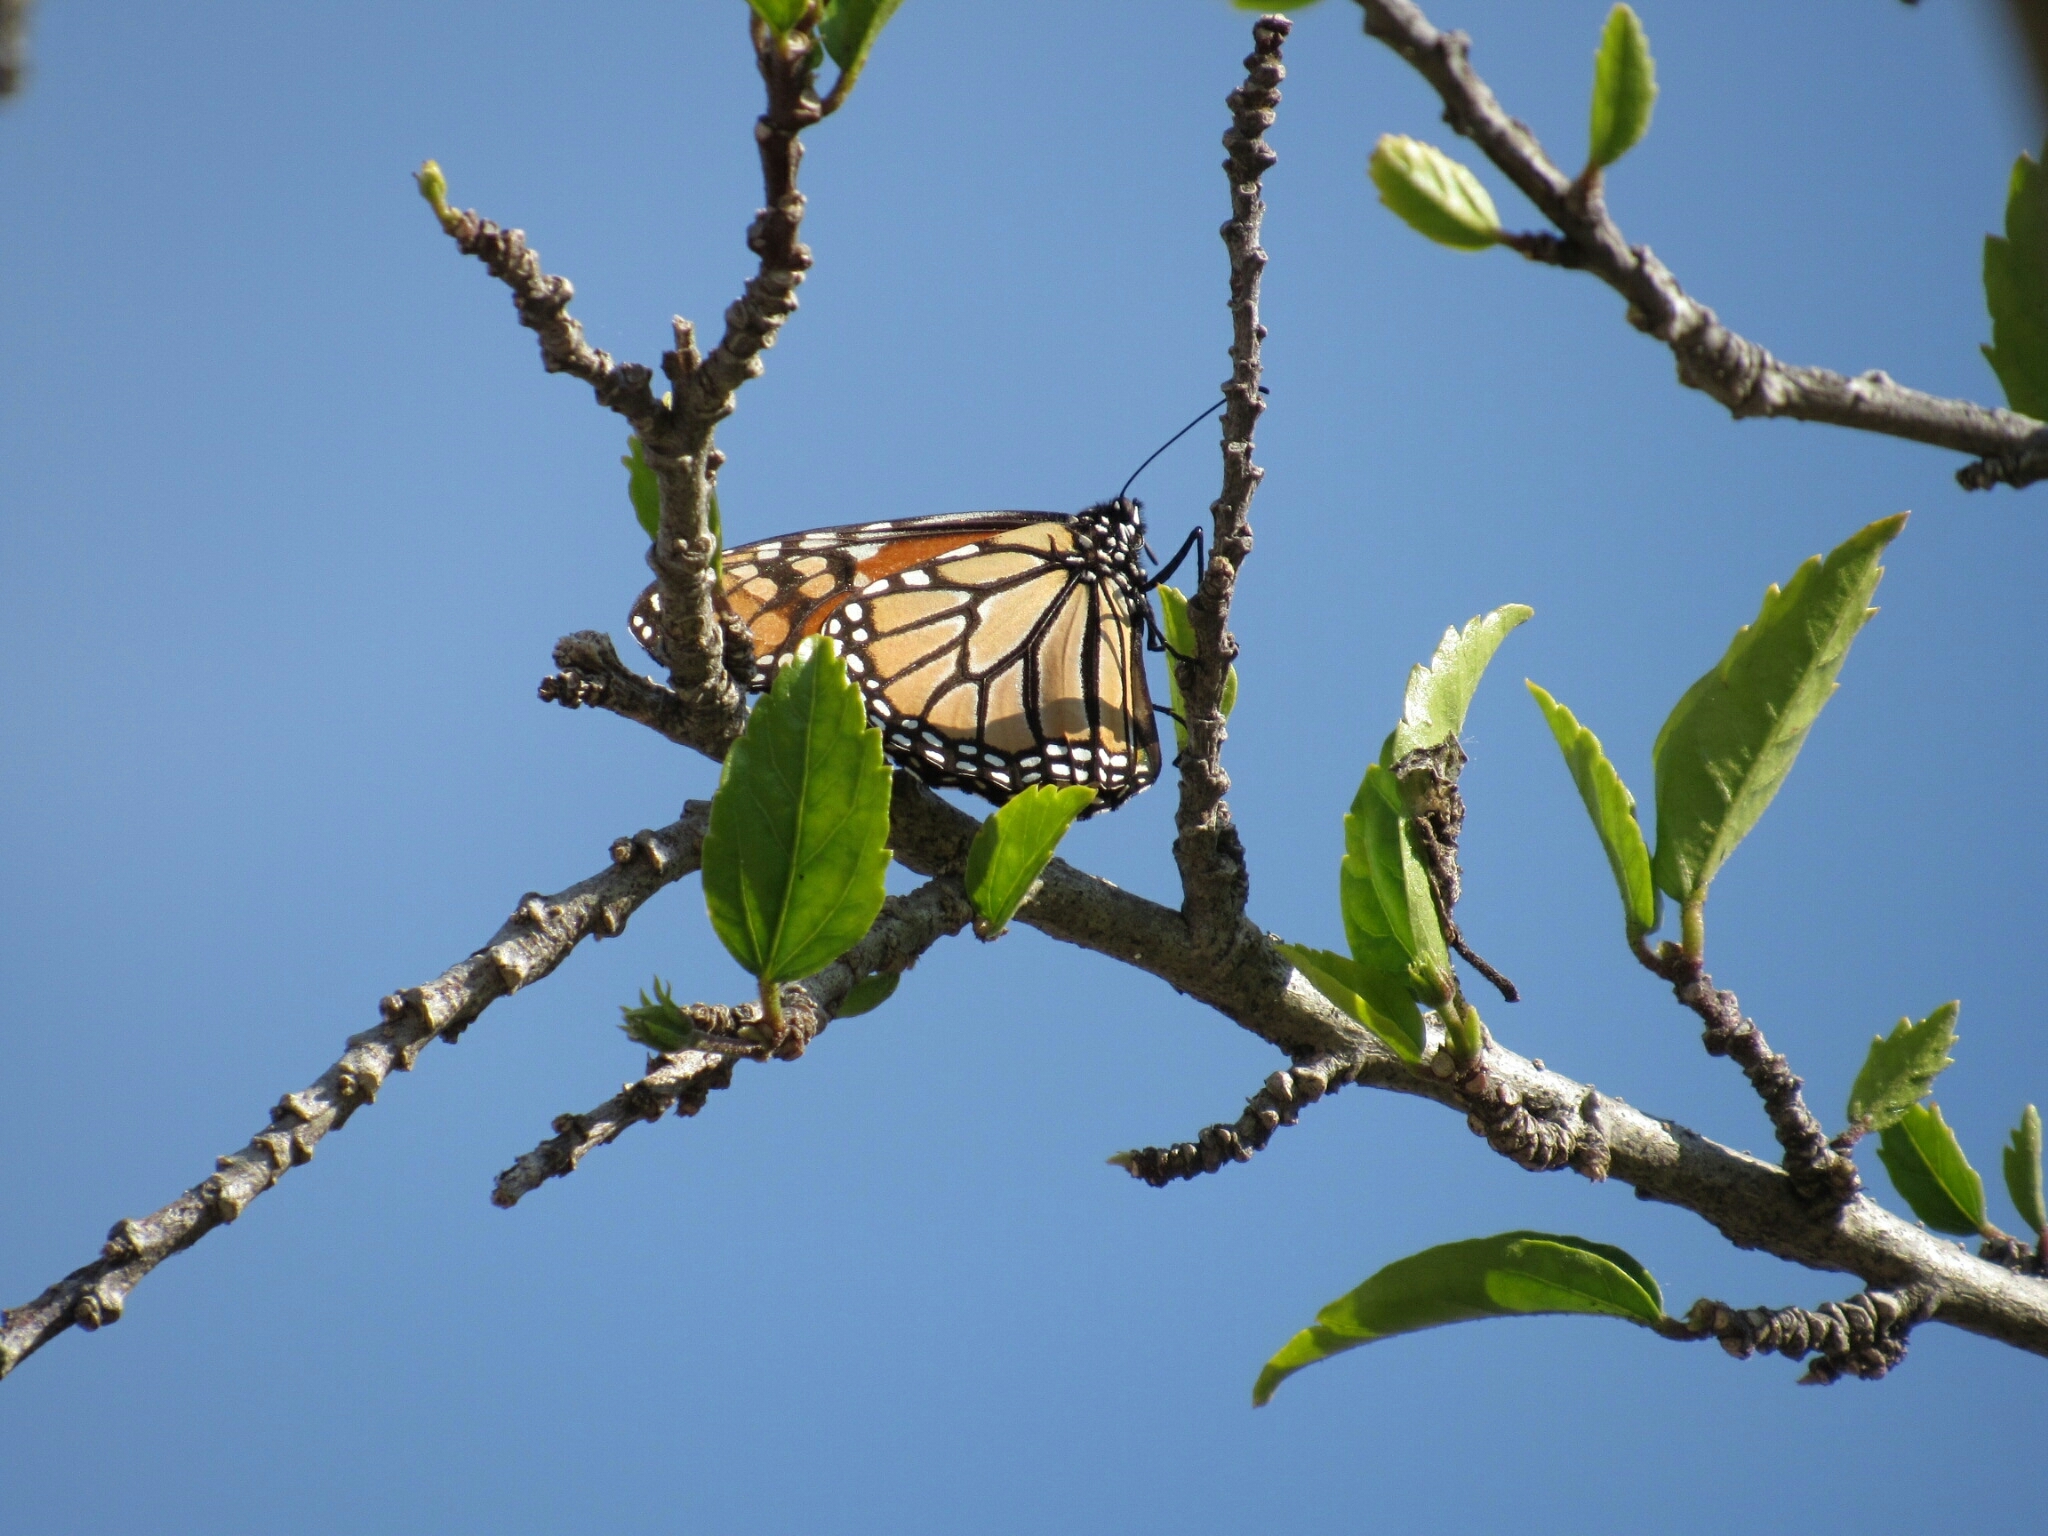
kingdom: Animalia
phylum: Arthropoda
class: Insecta
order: Lepidoptera
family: Nymphalidae
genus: Danaus
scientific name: Danaus plexippus
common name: Monarch
